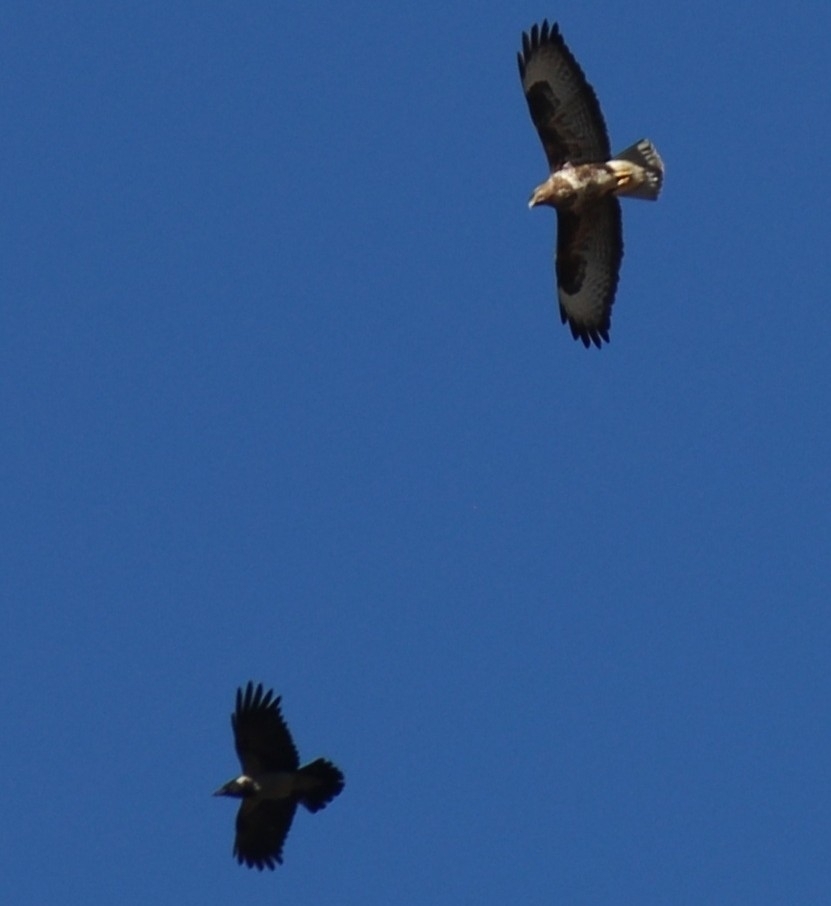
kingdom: Animalia
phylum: Chordata
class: Aves
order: Accipitriformes
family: Accipitridae
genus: Buteo
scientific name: Buteo buteo
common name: Common buzzard
